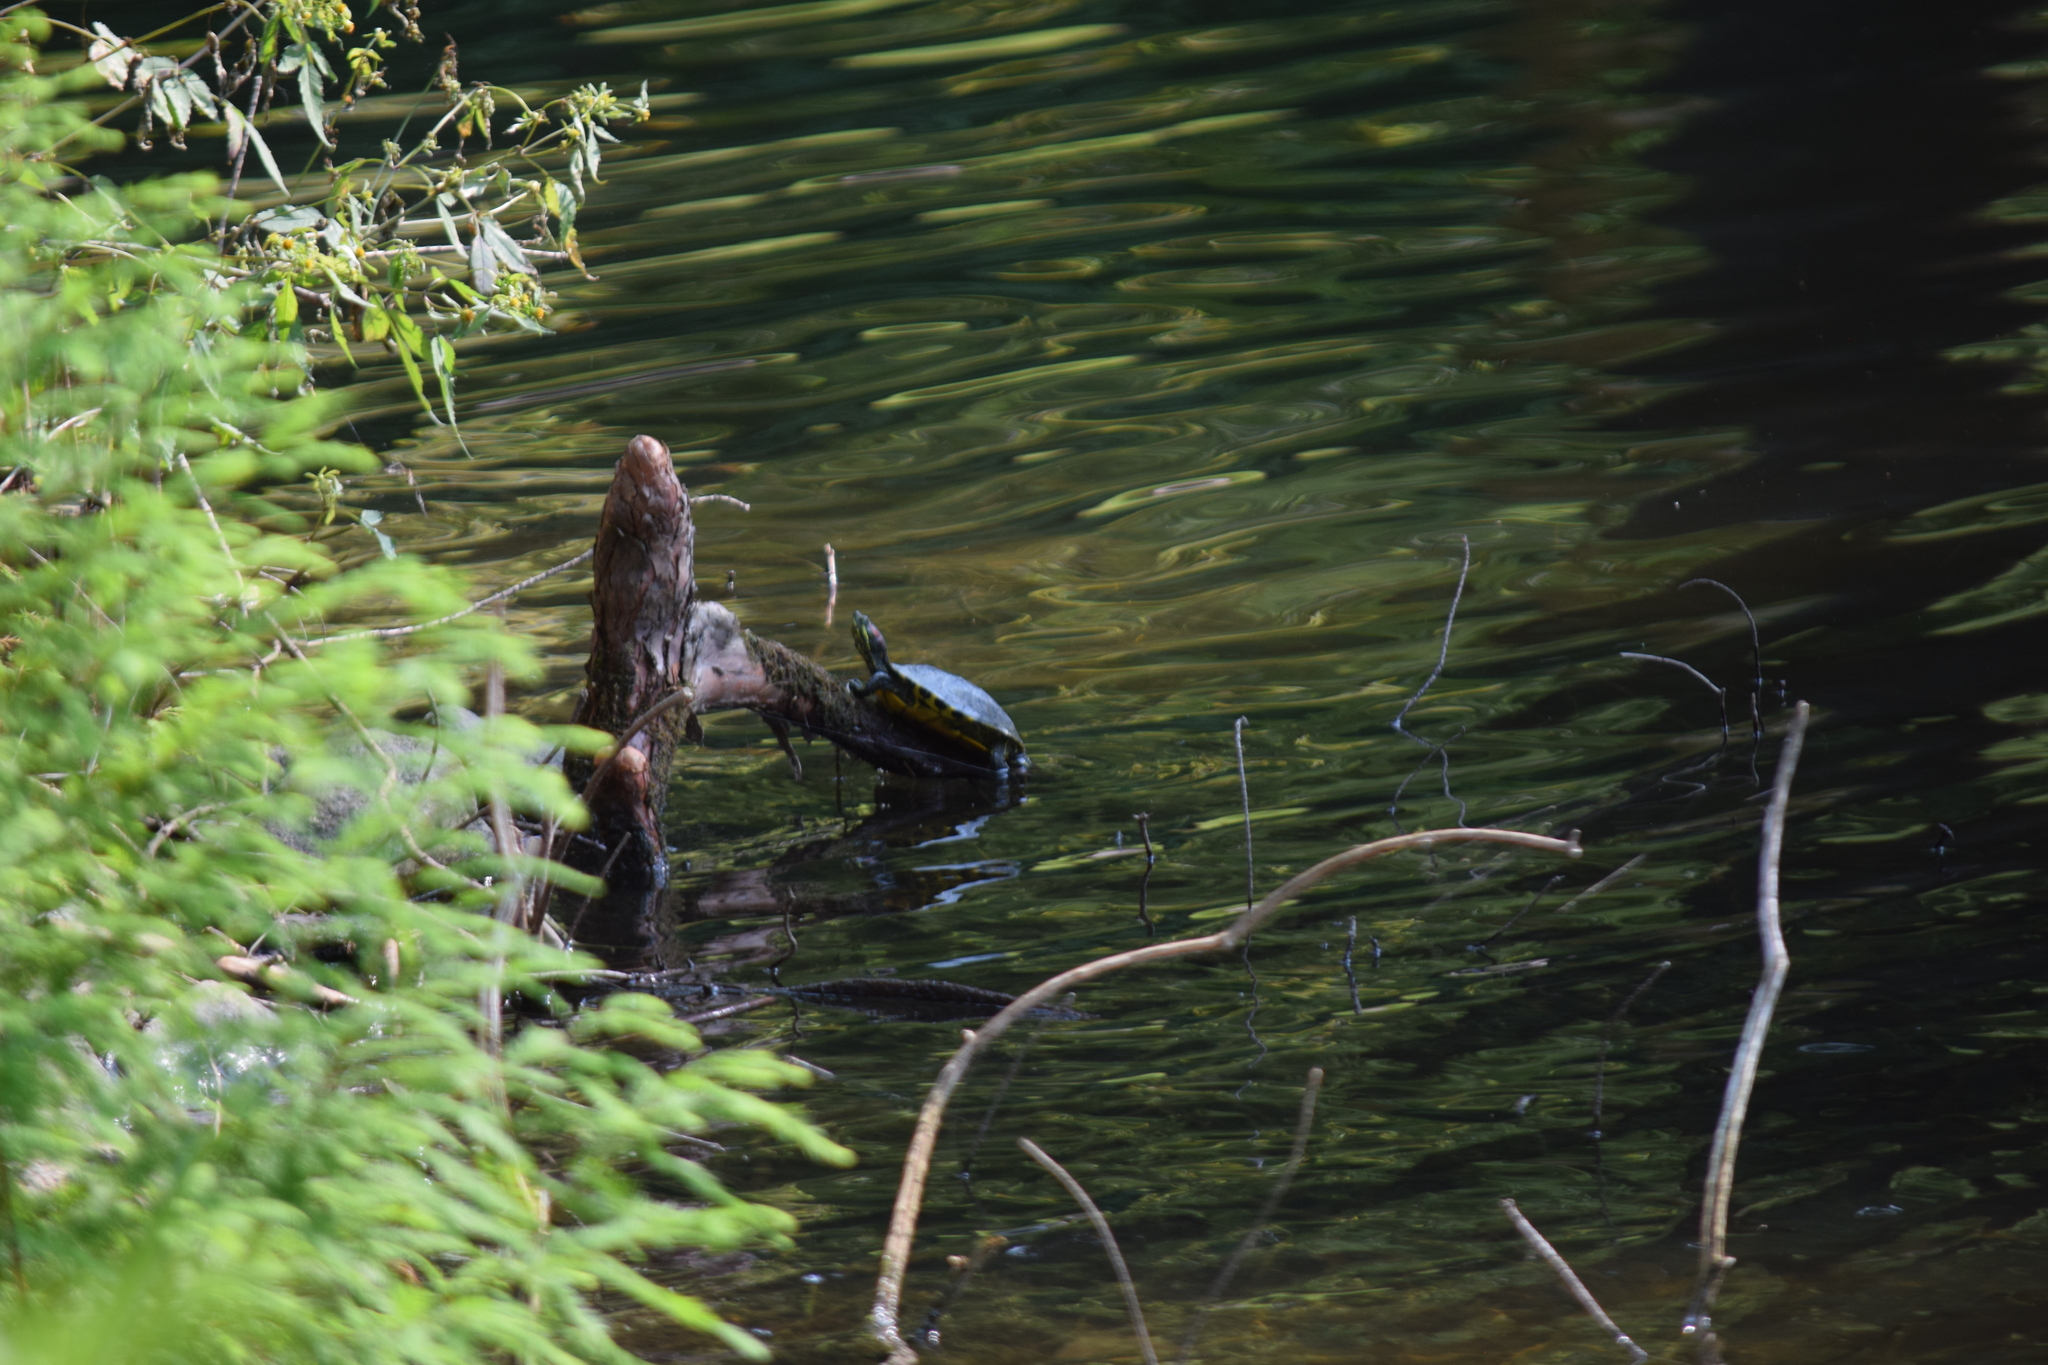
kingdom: Animalia
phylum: Chordata
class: Testudines
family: Emydidae
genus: Trachemys
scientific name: Trachemys scripta
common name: Slider
